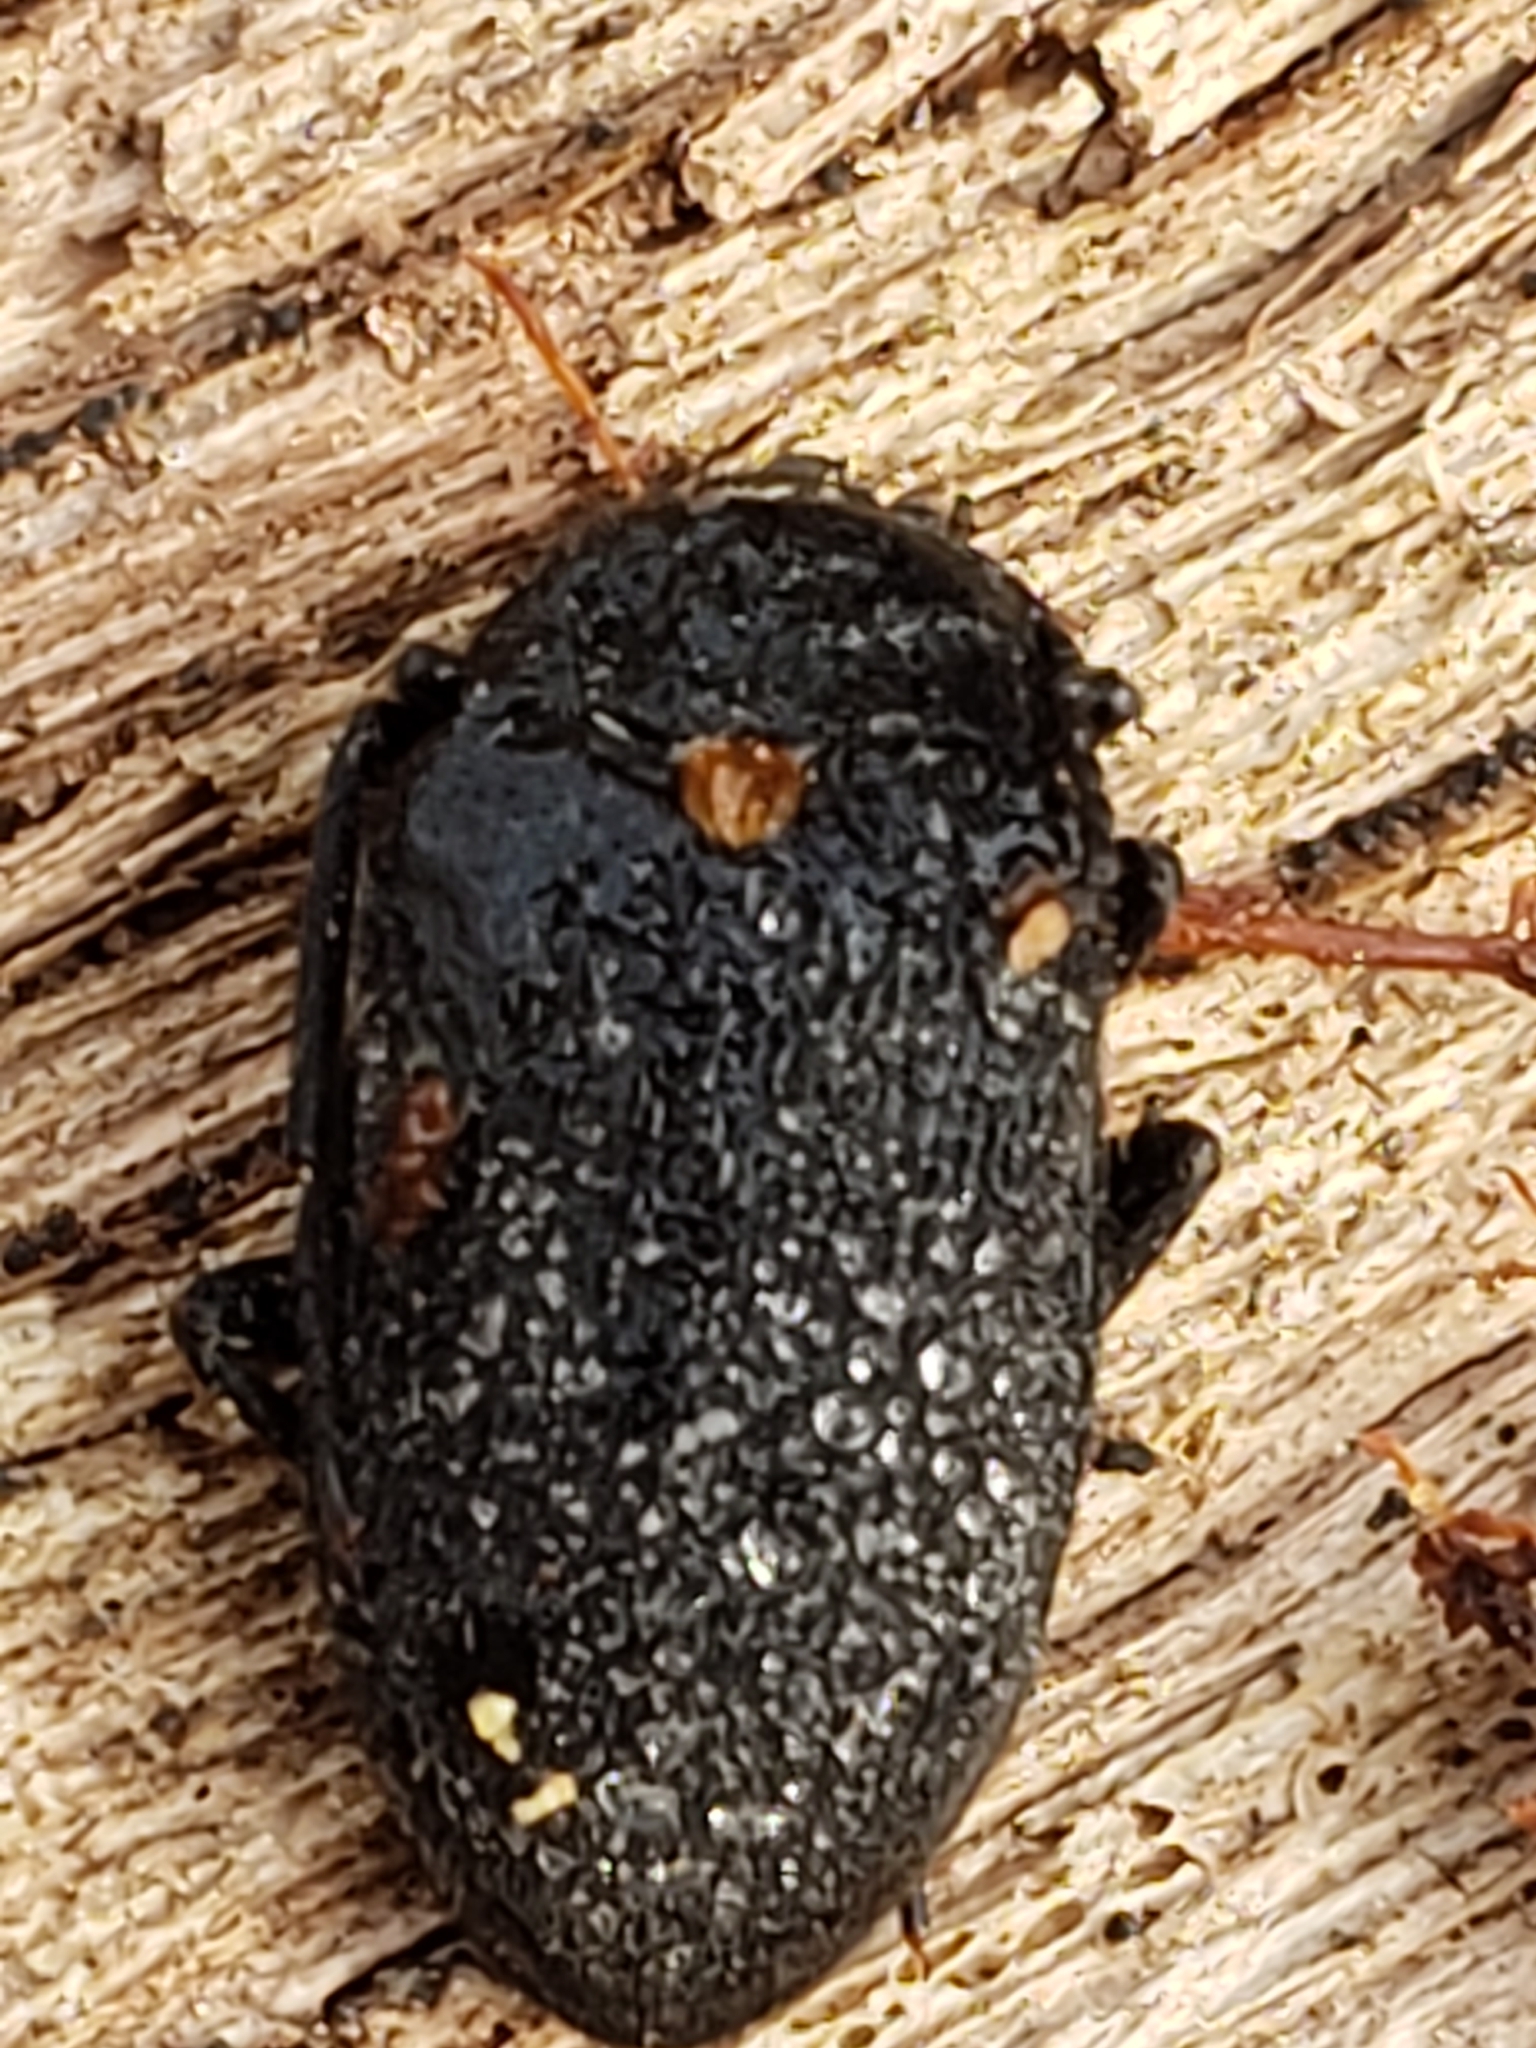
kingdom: Animalia
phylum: Arthropoda
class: Insecta
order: Coleoptera
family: Tetratomidae
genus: Penthe
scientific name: Penthe obliquata
